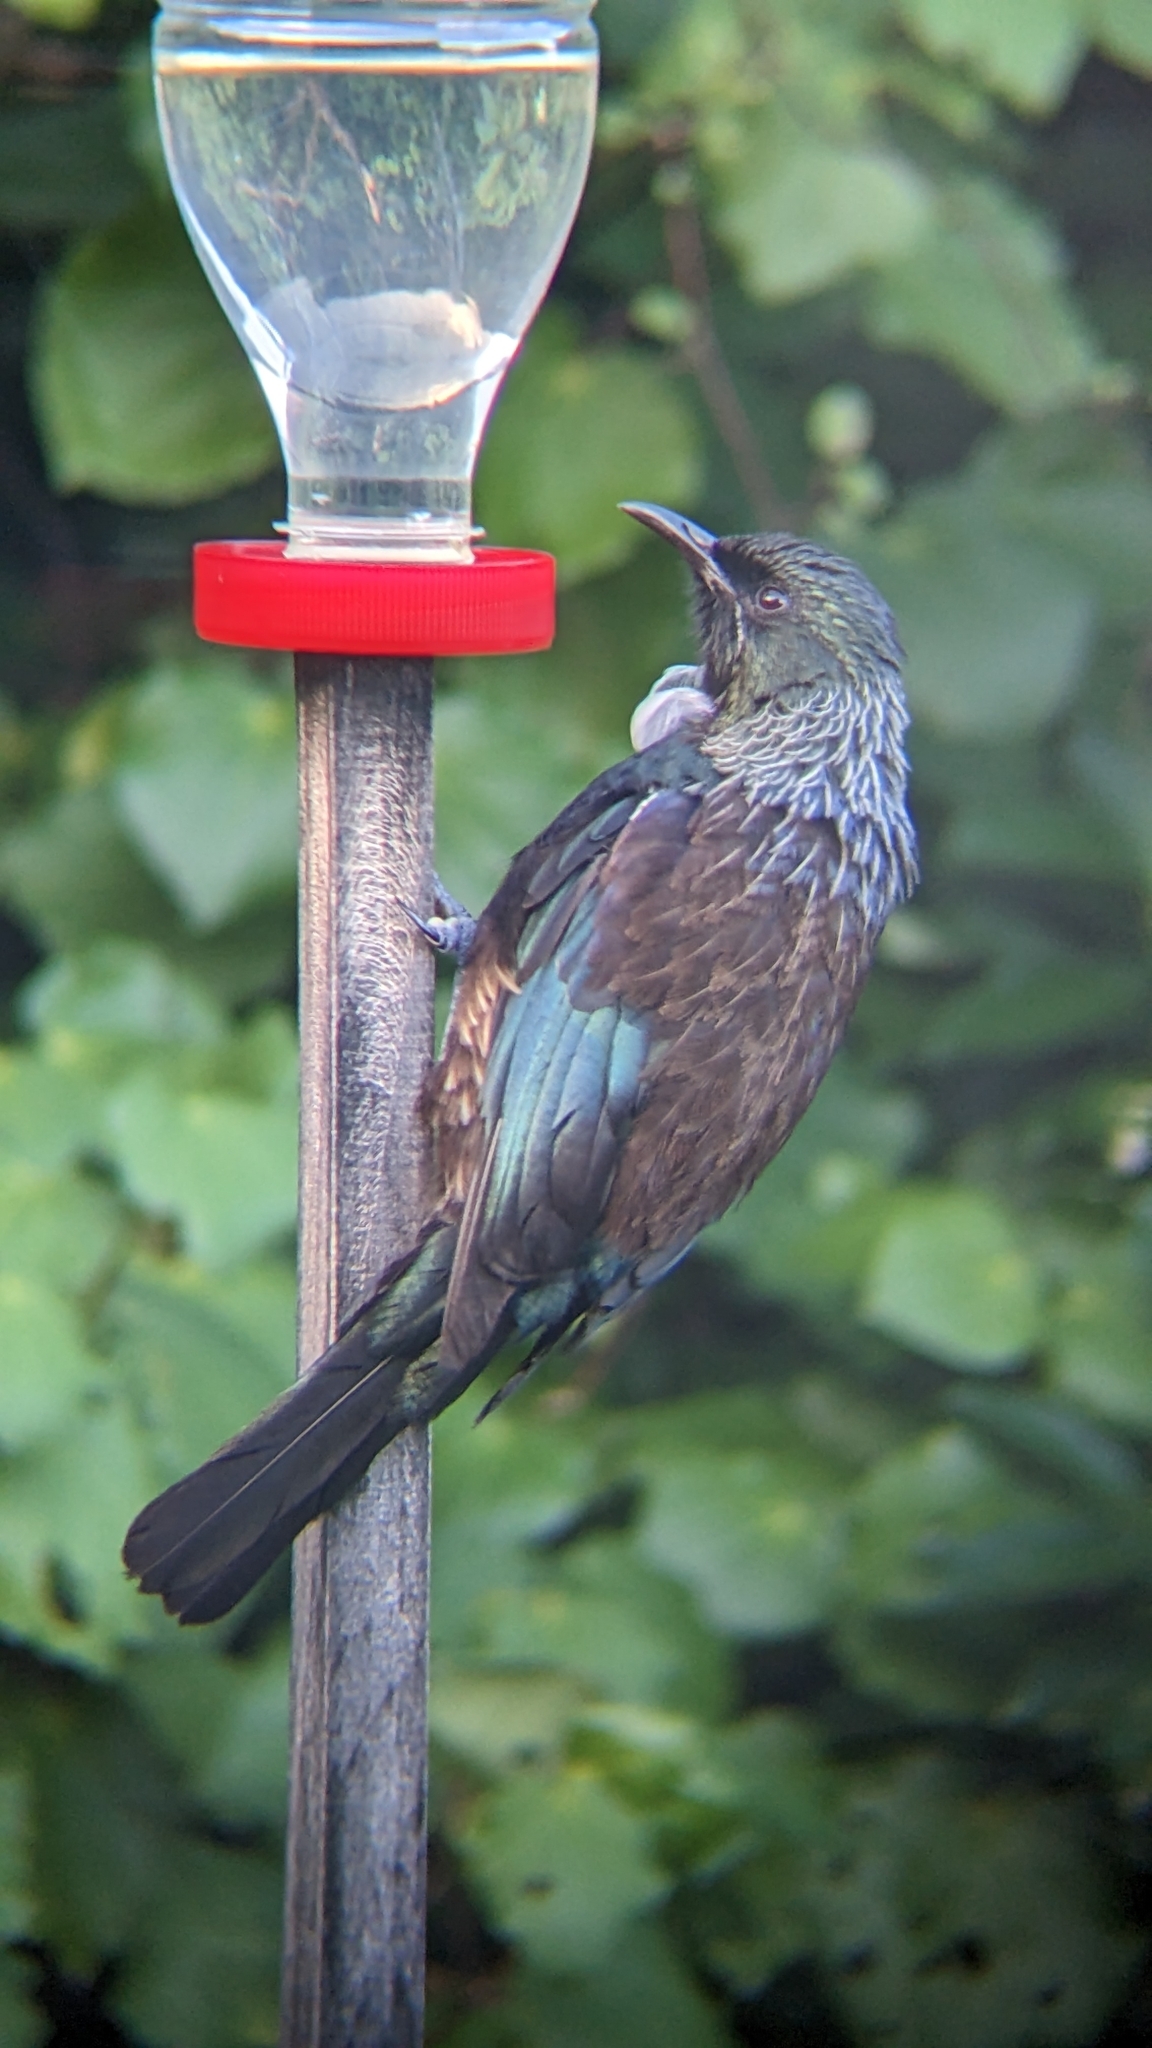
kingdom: Animalia
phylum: Chordata
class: Aves
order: Passeriformes
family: Meliphagidae
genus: Prosthemadera
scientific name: Prosthemadera novaeseelandiae
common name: Tui
